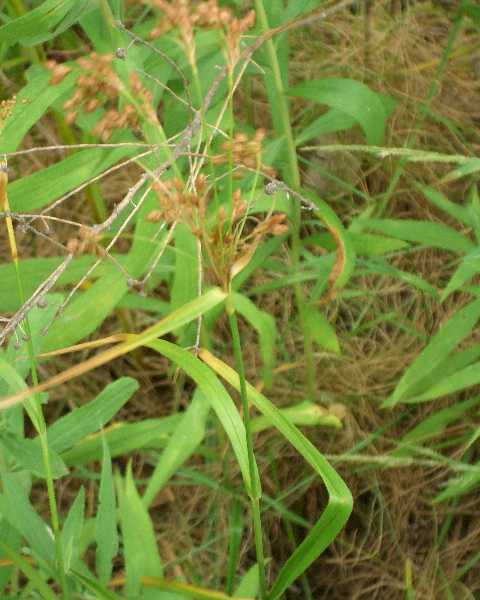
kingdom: Plantae
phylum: Tracheophyta
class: Liliopsida
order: Poales
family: Cyperaceae
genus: Scirpus
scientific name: Scirpus pendulus
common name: Nodding bulrush
